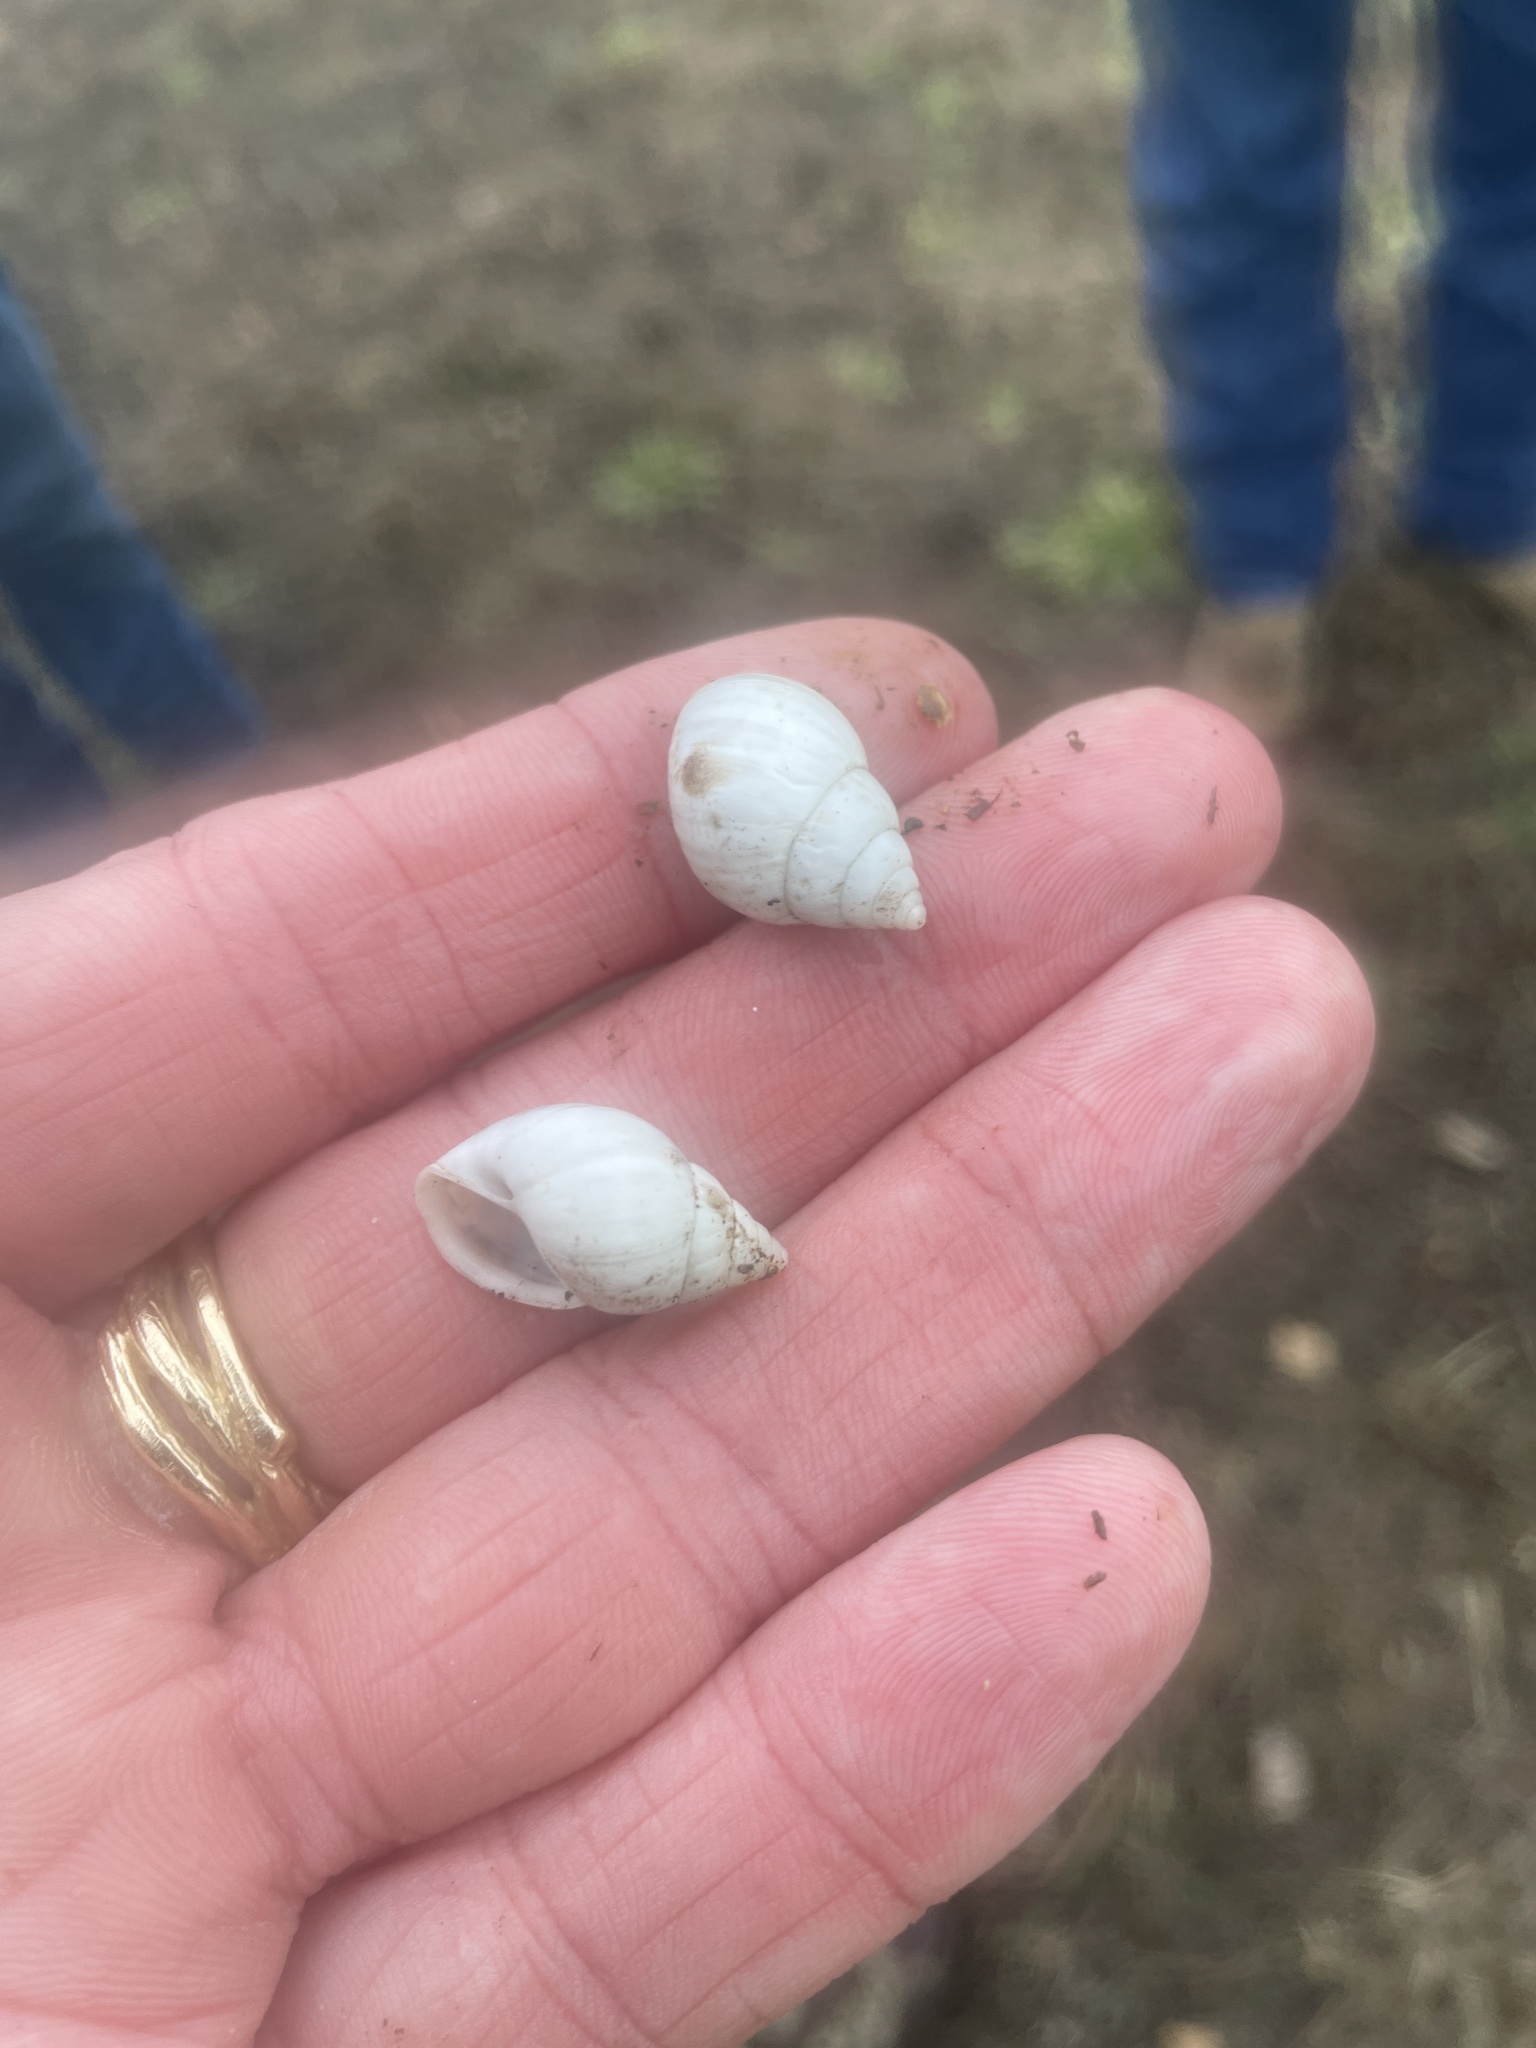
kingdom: Animalia
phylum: Mollusca
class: Gastropoda
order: Stylommatophora
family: Bulimulidae
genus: Rabdotus
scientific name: Rabdotus dealbatus
